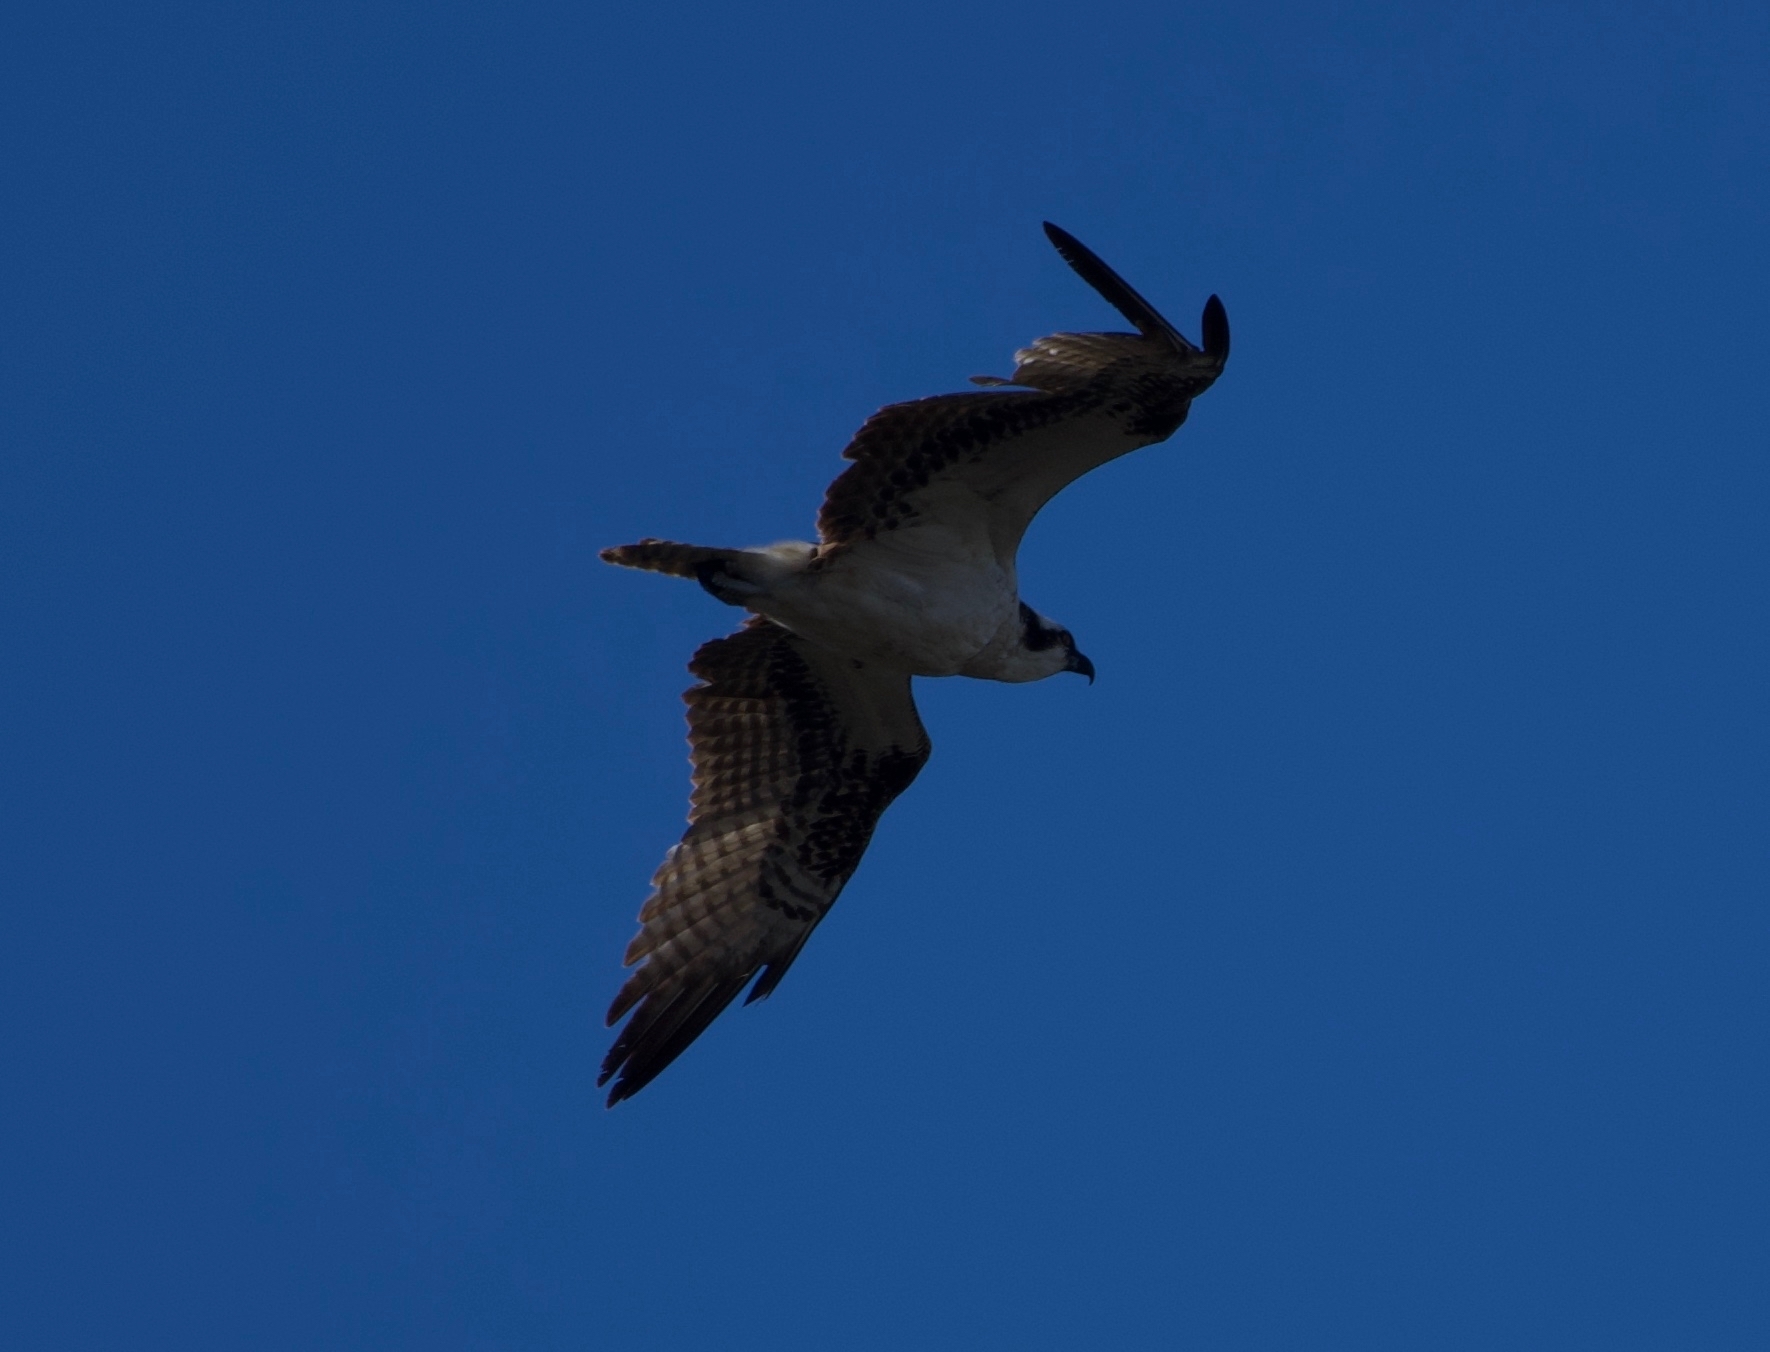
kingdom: Animalia
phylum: Chordata
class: Aves
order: Accipitriformes
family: Pandionidae
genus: Pandion
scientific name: Pandion haliaetus
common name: Osprey
